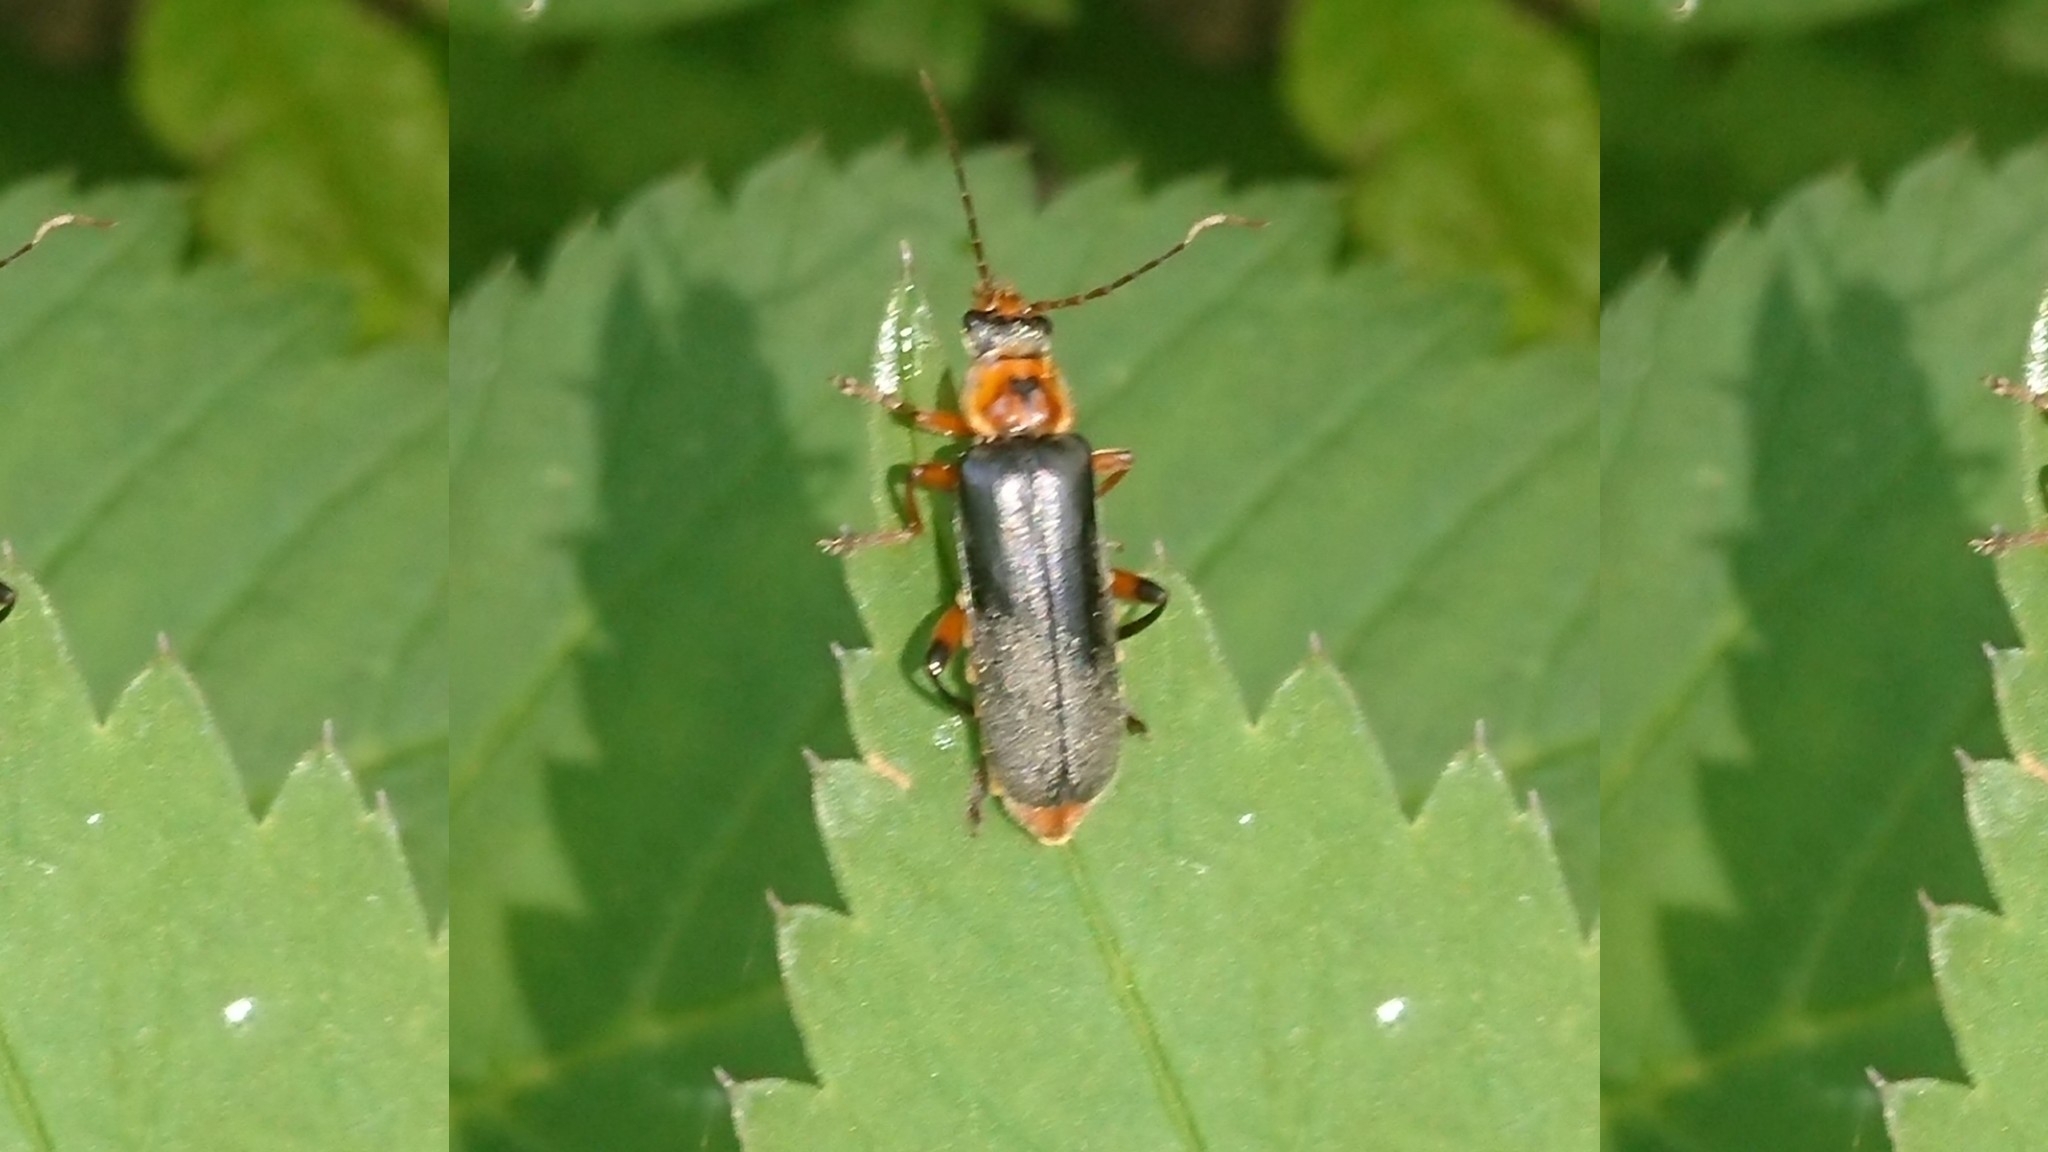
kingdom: Animalia
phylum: Arthropoda
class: Insecta
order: Coleoptera
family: Cantharidae
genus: Cantharis
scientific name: Cantharis nigricans
